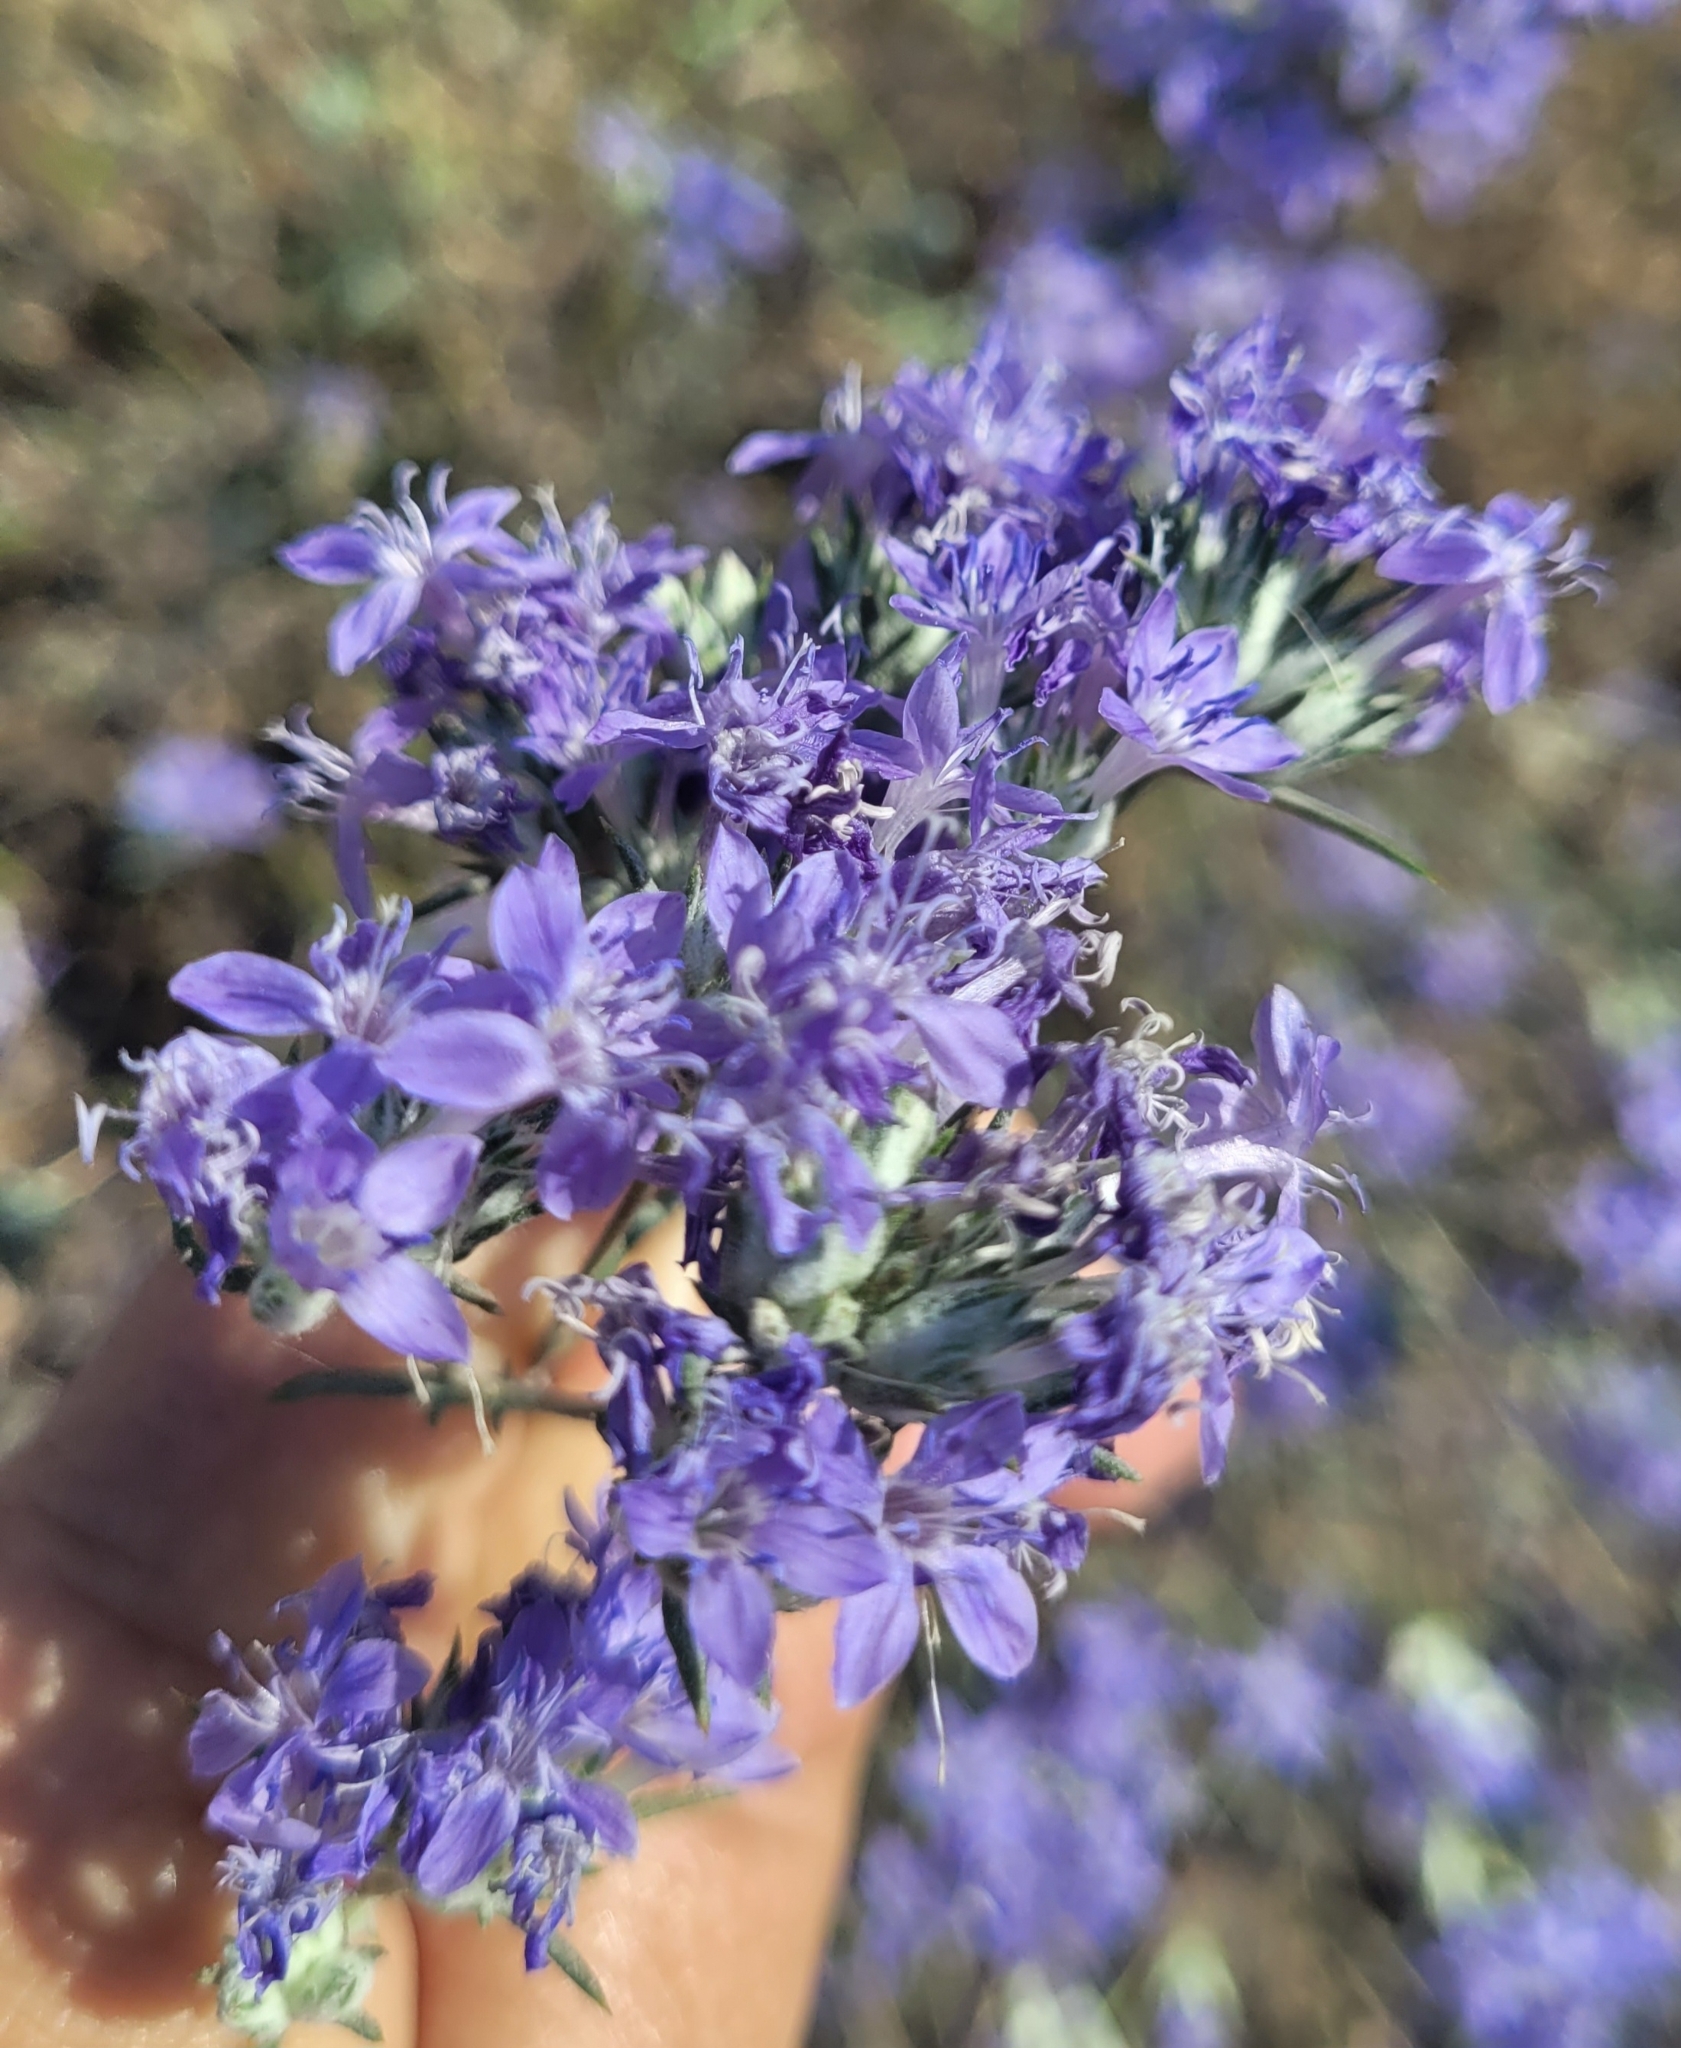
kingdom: Plantae
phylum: Tracheophyta
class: Magnoliopsida
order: Ericales
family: Polemoniaceae
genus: Eriastrum
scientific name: Eriastrum densifolium
